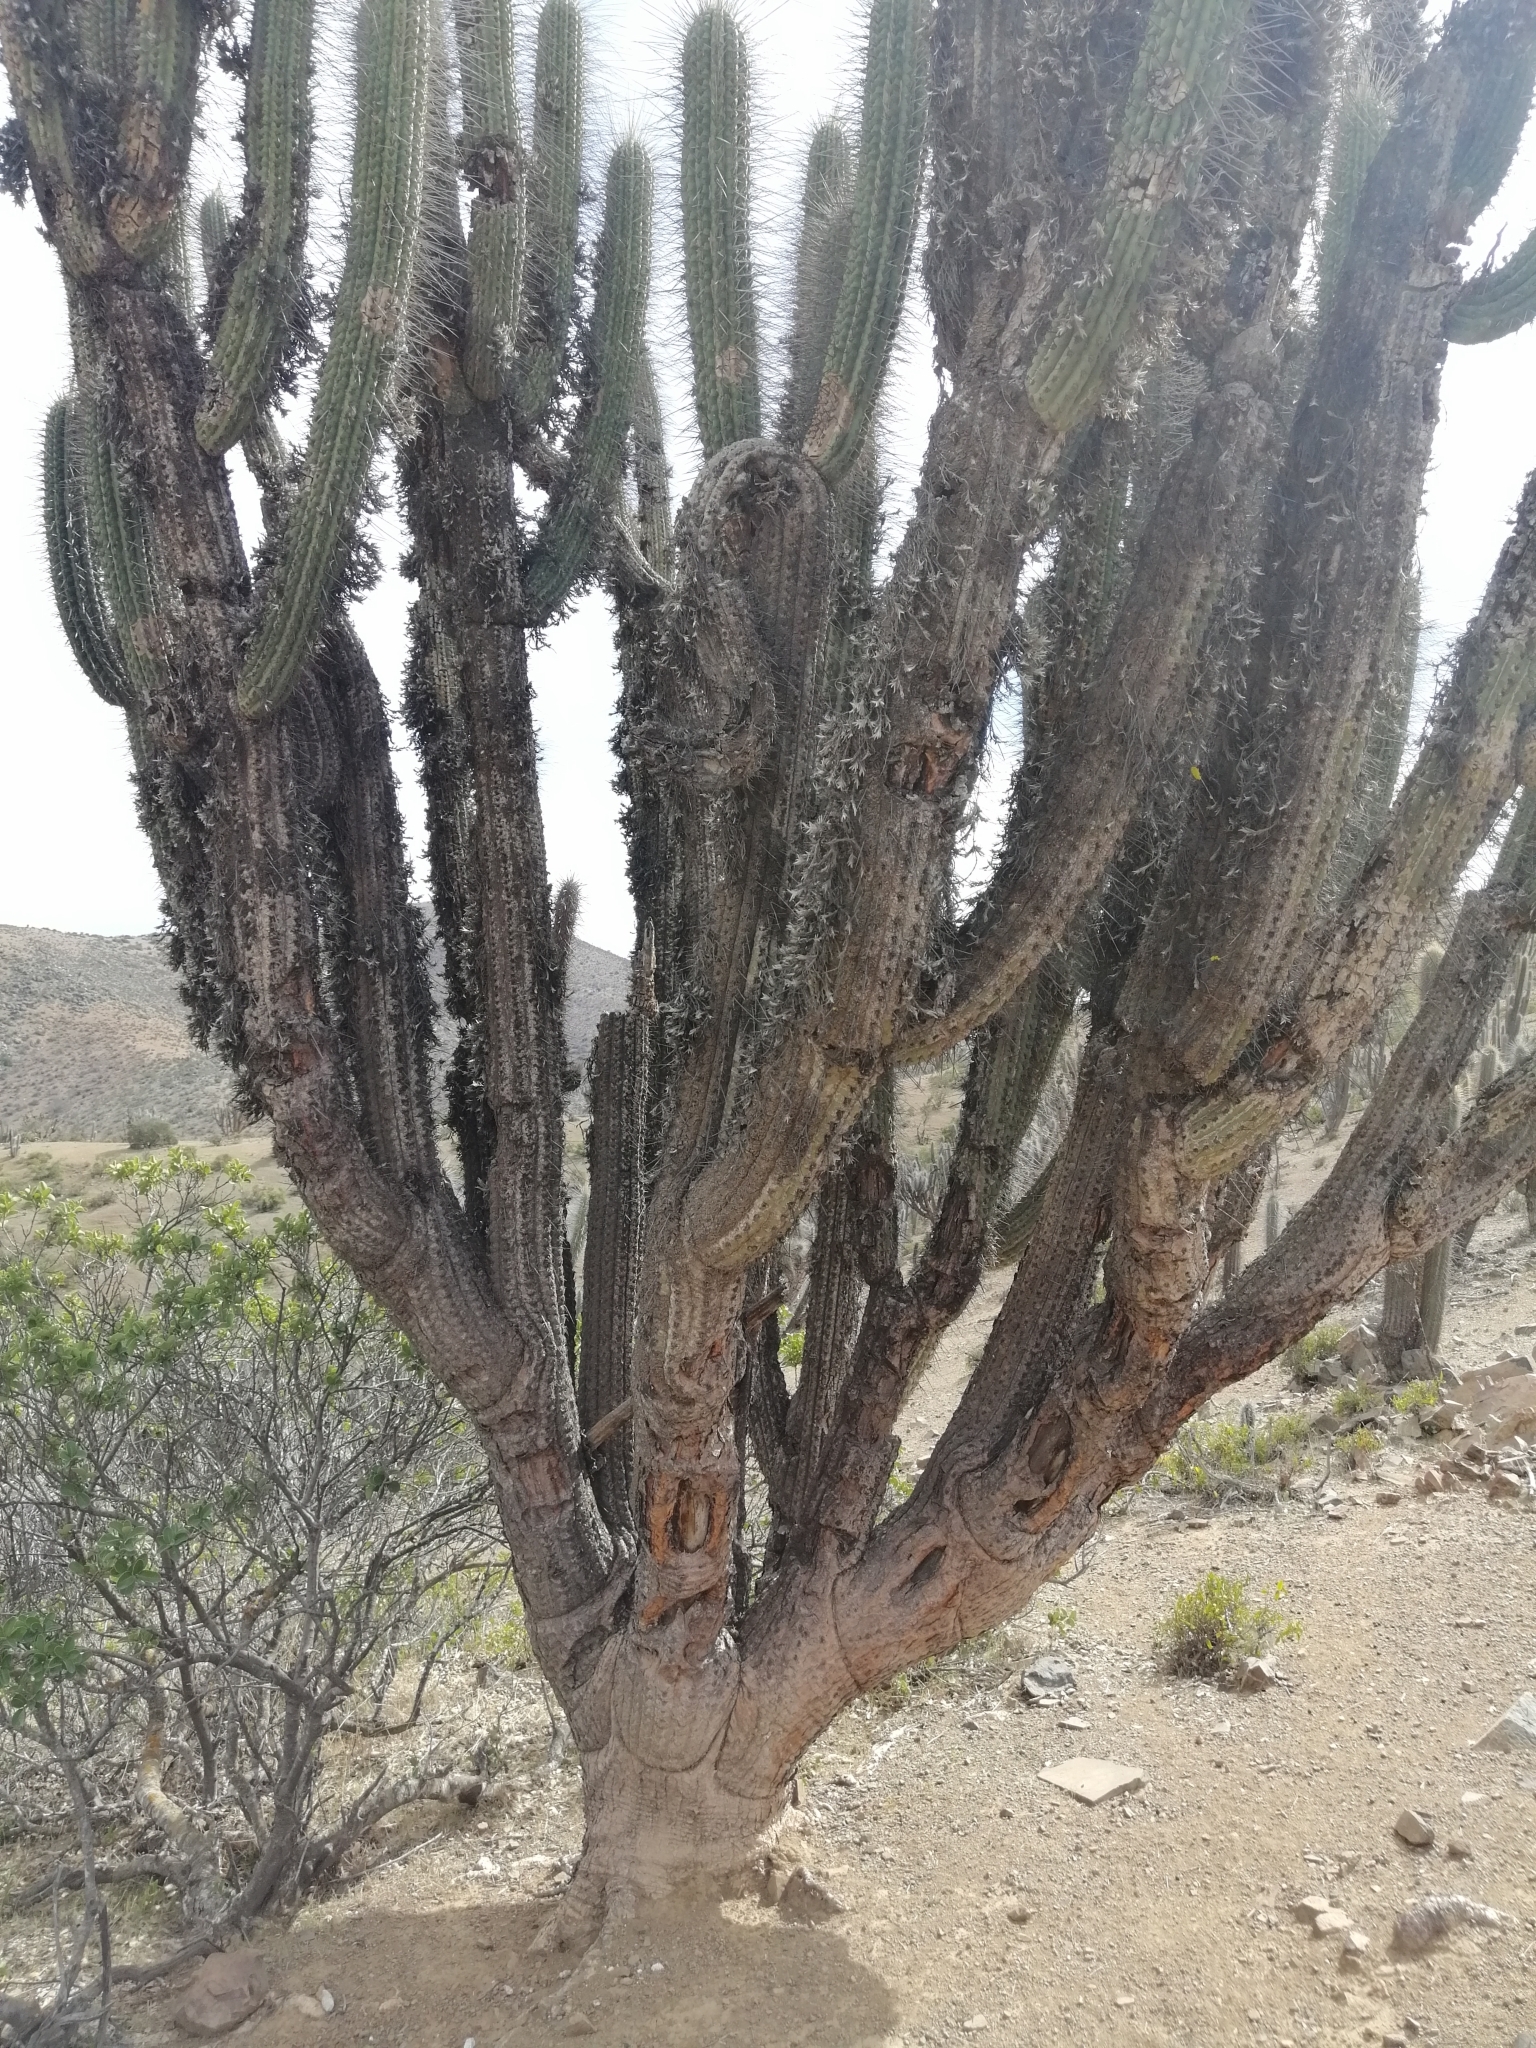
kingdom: Plantae
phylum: Tracheophyta
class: Liliopsida
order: Poales
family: Bromeliaceae
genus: Tillandsia
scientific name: Tillandsia virescens
